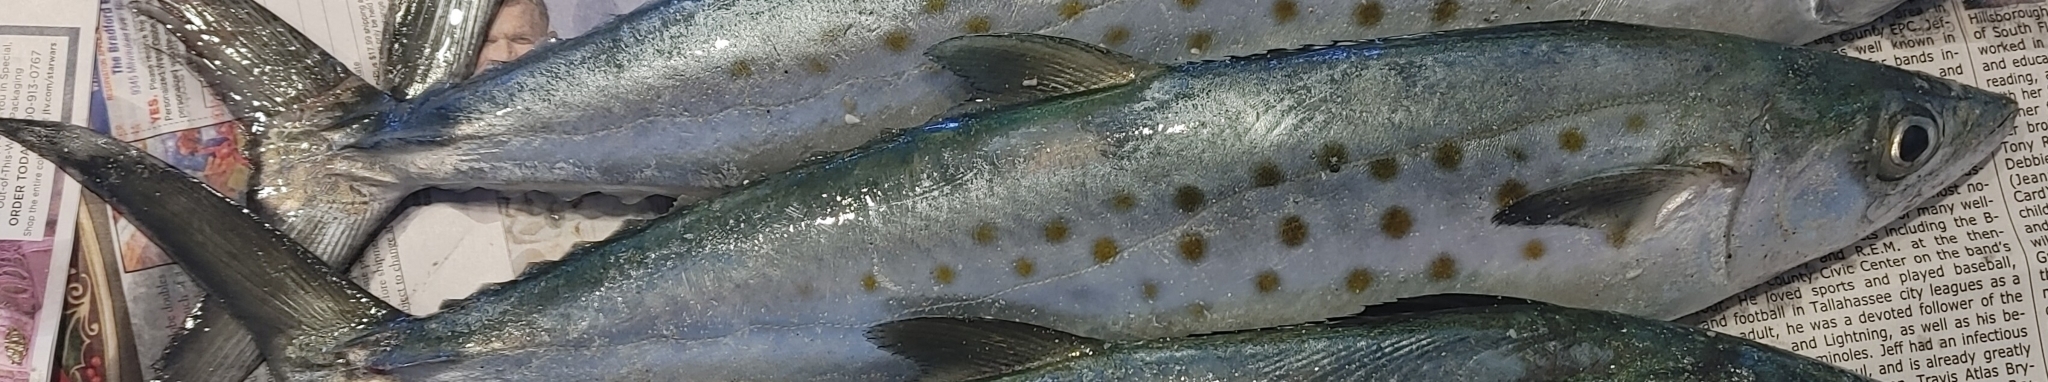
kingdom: Animalia
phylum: Chordata
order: Perciformes
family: Scombridae
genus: Scomberomorus
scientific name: Scomberomorus maculatus
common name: Spanish mackerel
